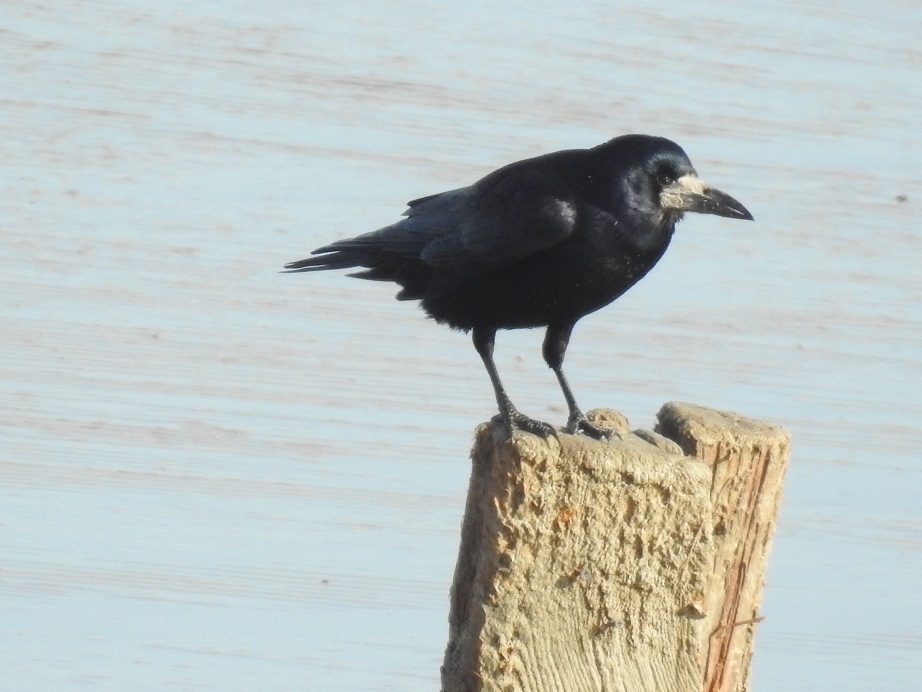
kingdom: Animalia
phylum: Chordata
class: Aves
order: Passeriformes
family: Corvidae
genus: Corvus
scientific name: Corvus frugilegus
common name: Rook
